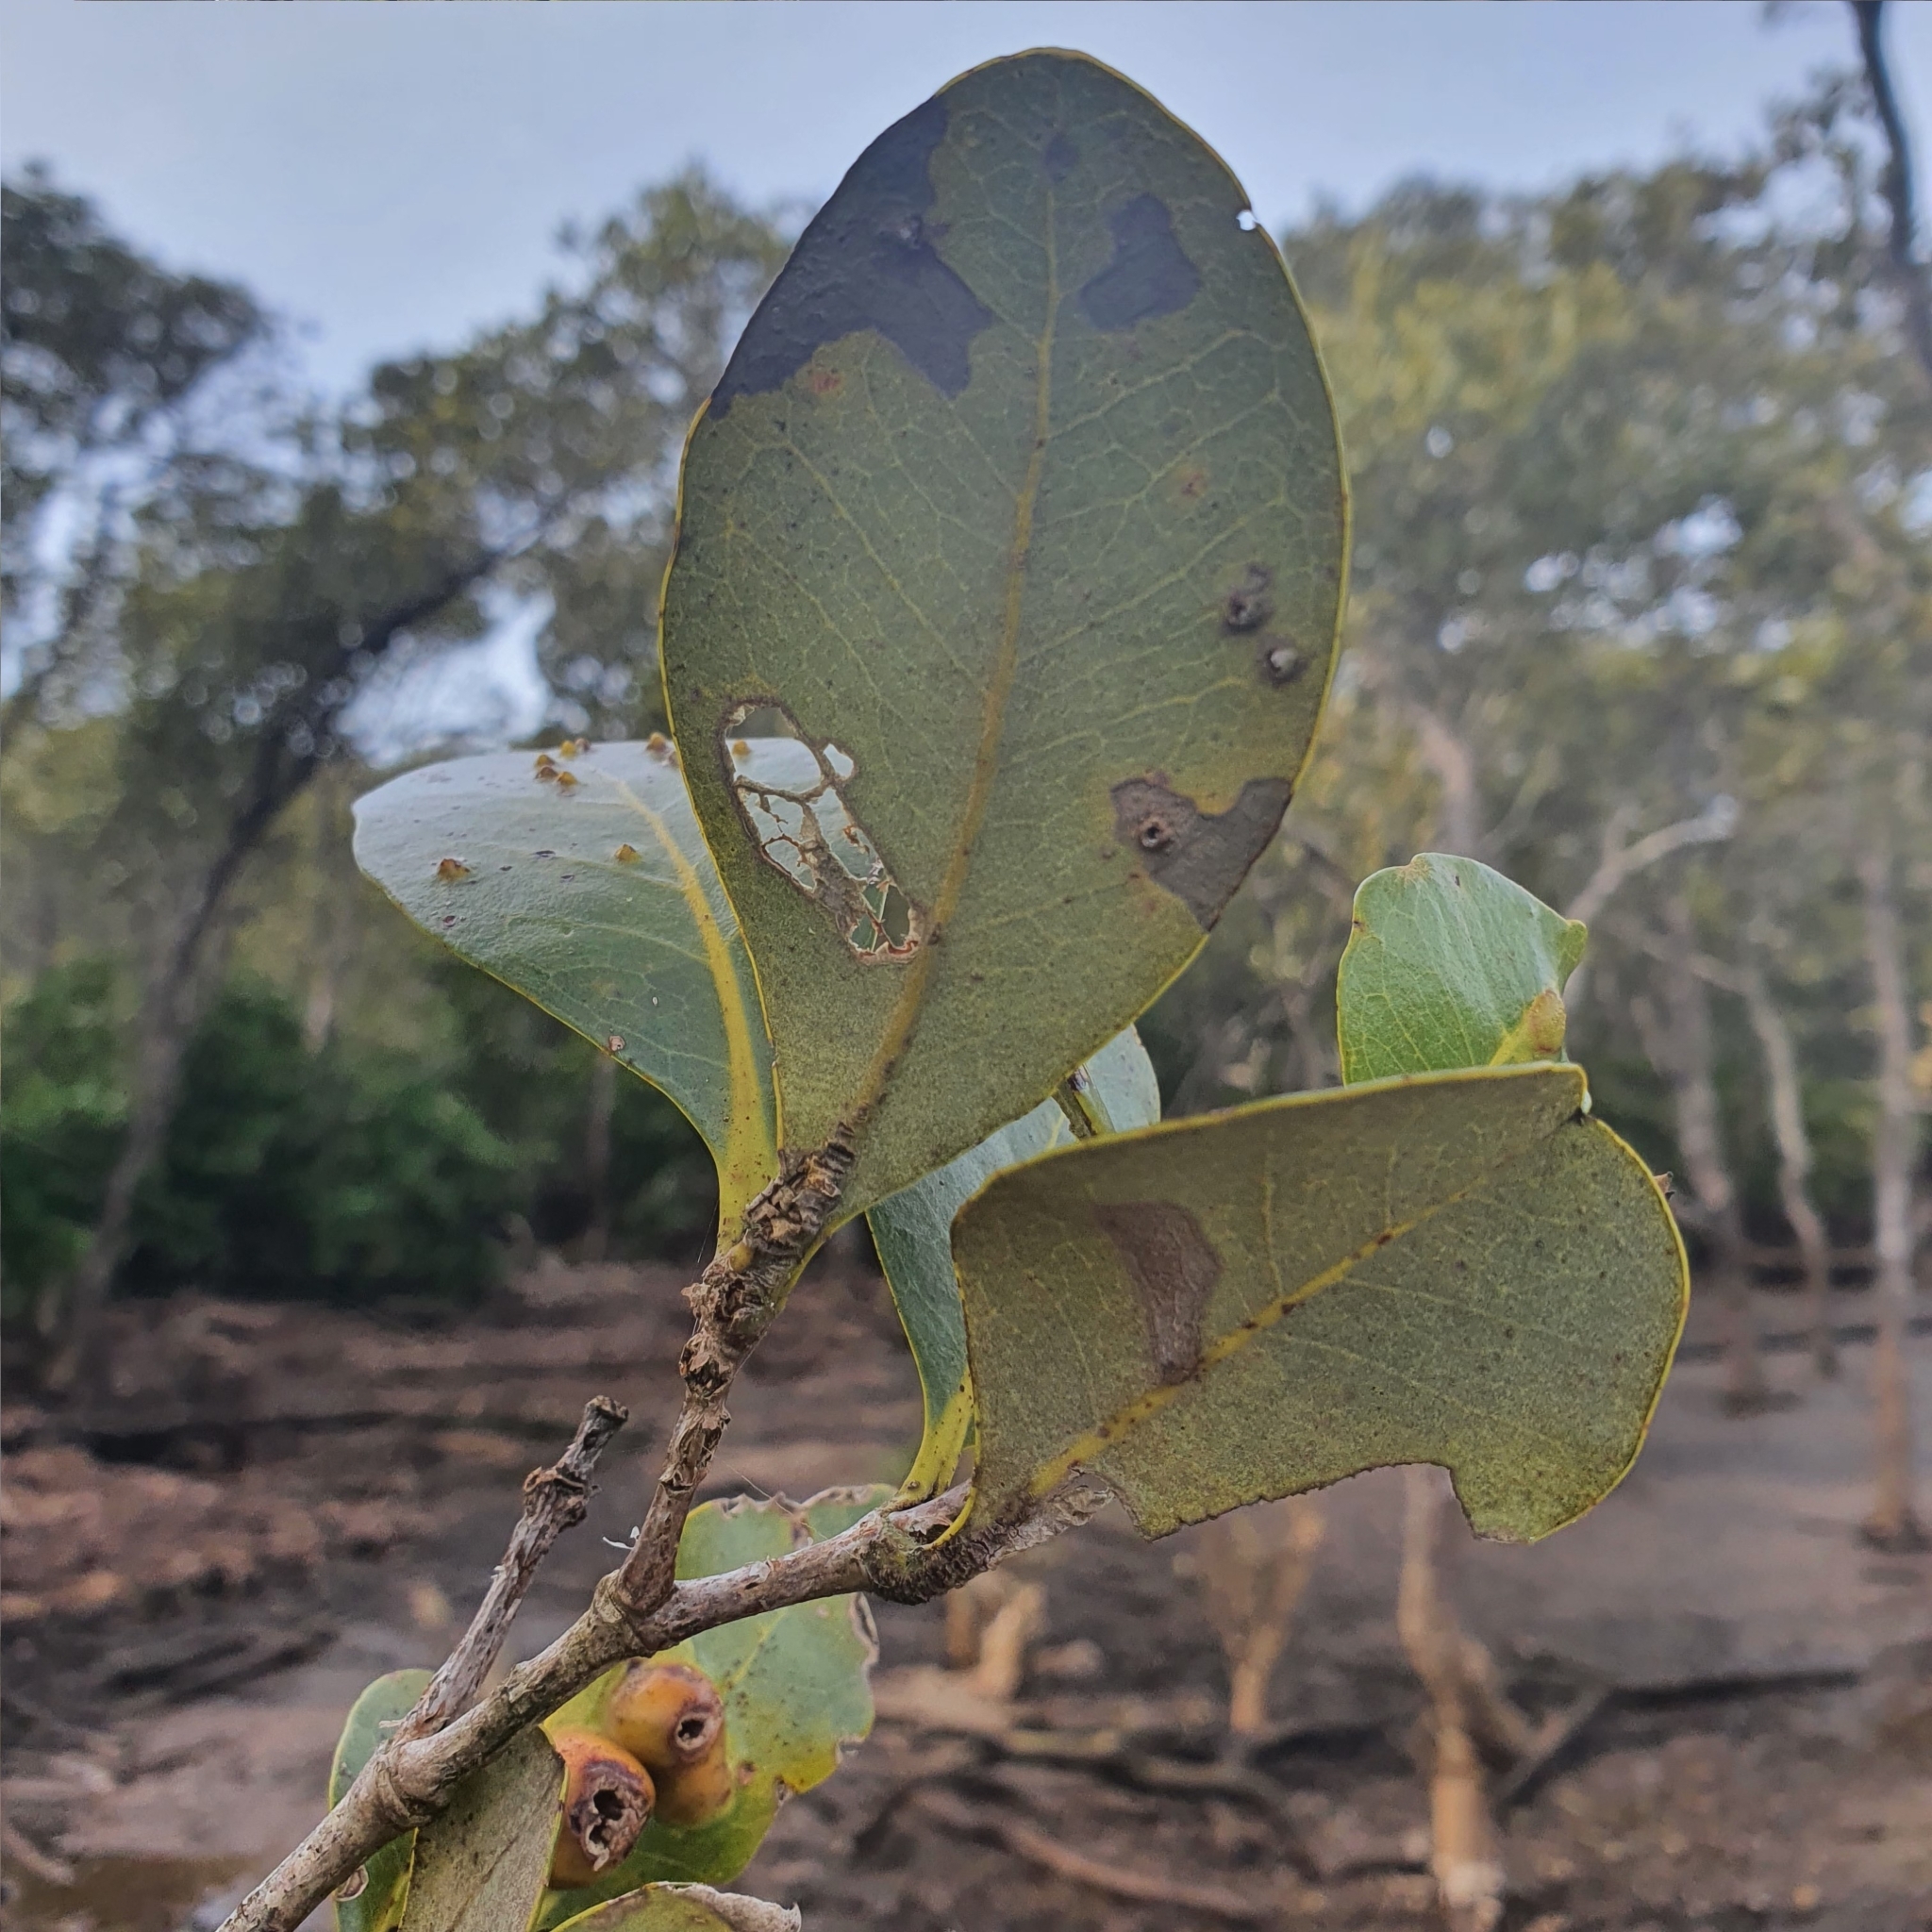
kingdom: Plantae
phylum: Tracheophyta
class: Magnoliopsida
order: Lamiales
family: Acanthaceae
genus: Avicennia
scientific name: Avicennia marina
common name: Gray mangrove
